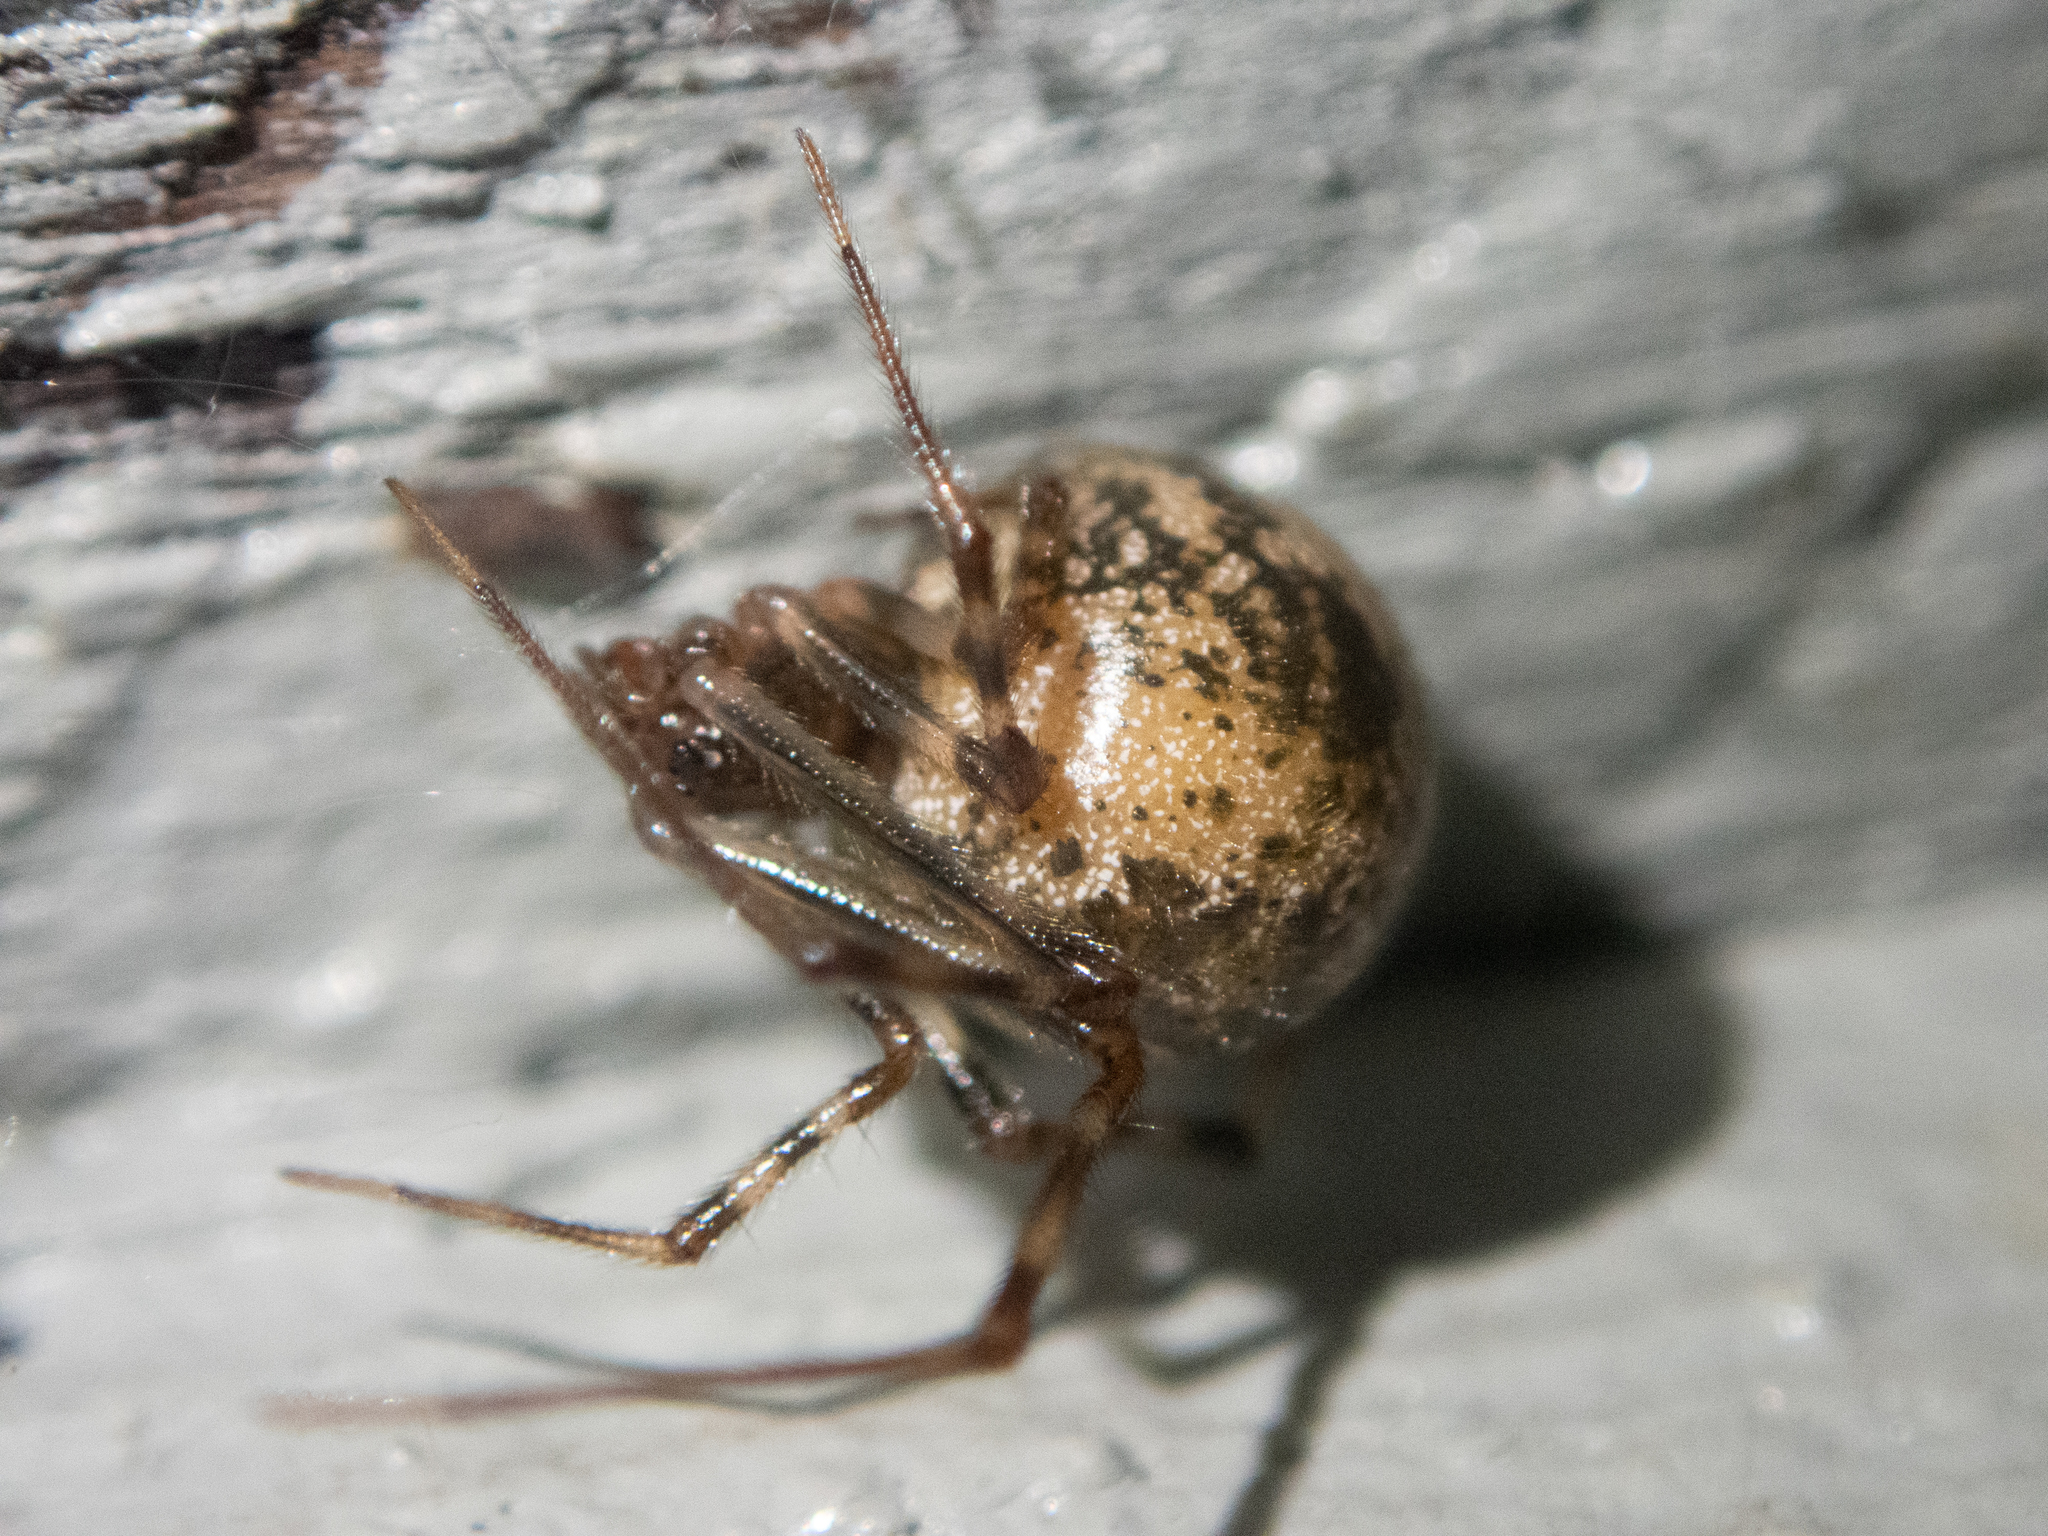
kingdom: Animalia
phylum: Arthropoda
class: Arachnida
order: Araneae
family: Theridiidae
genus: Parasteatoda
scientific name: Parasteatoda tepidariorum
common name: Common house spider
